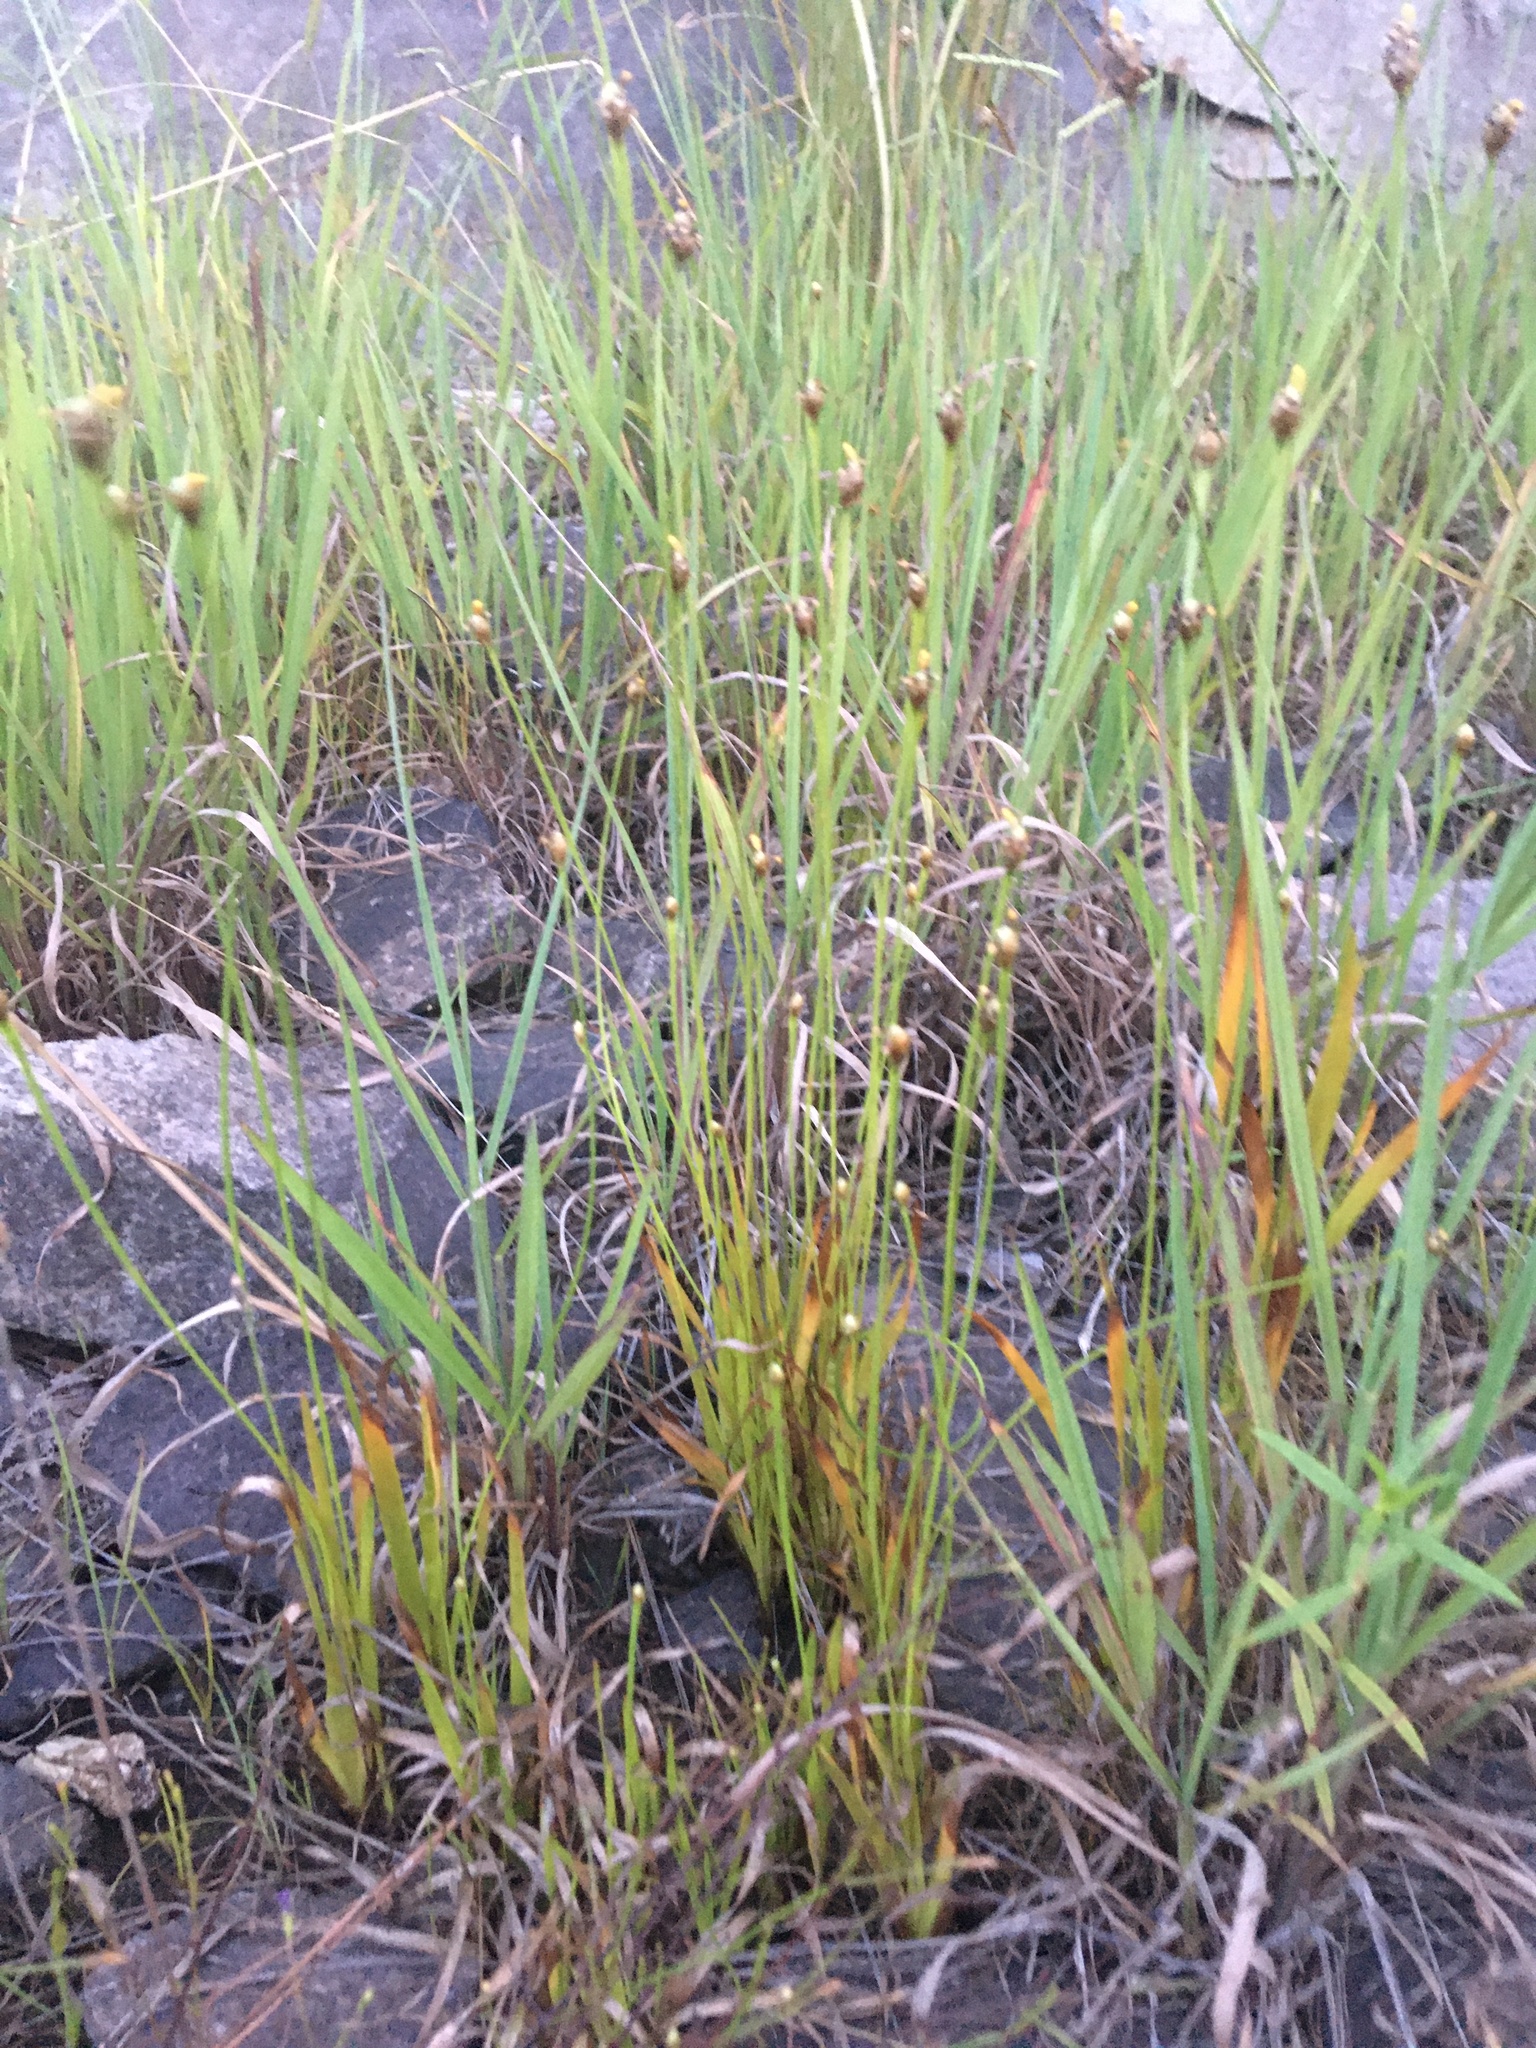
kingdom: Plantae
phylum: Tracheophyta
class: Liliopsida
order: Poales
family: Xyridaceae
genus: Xyris
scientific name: Xyris jupicai
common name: Richard's yelloweyed grass
